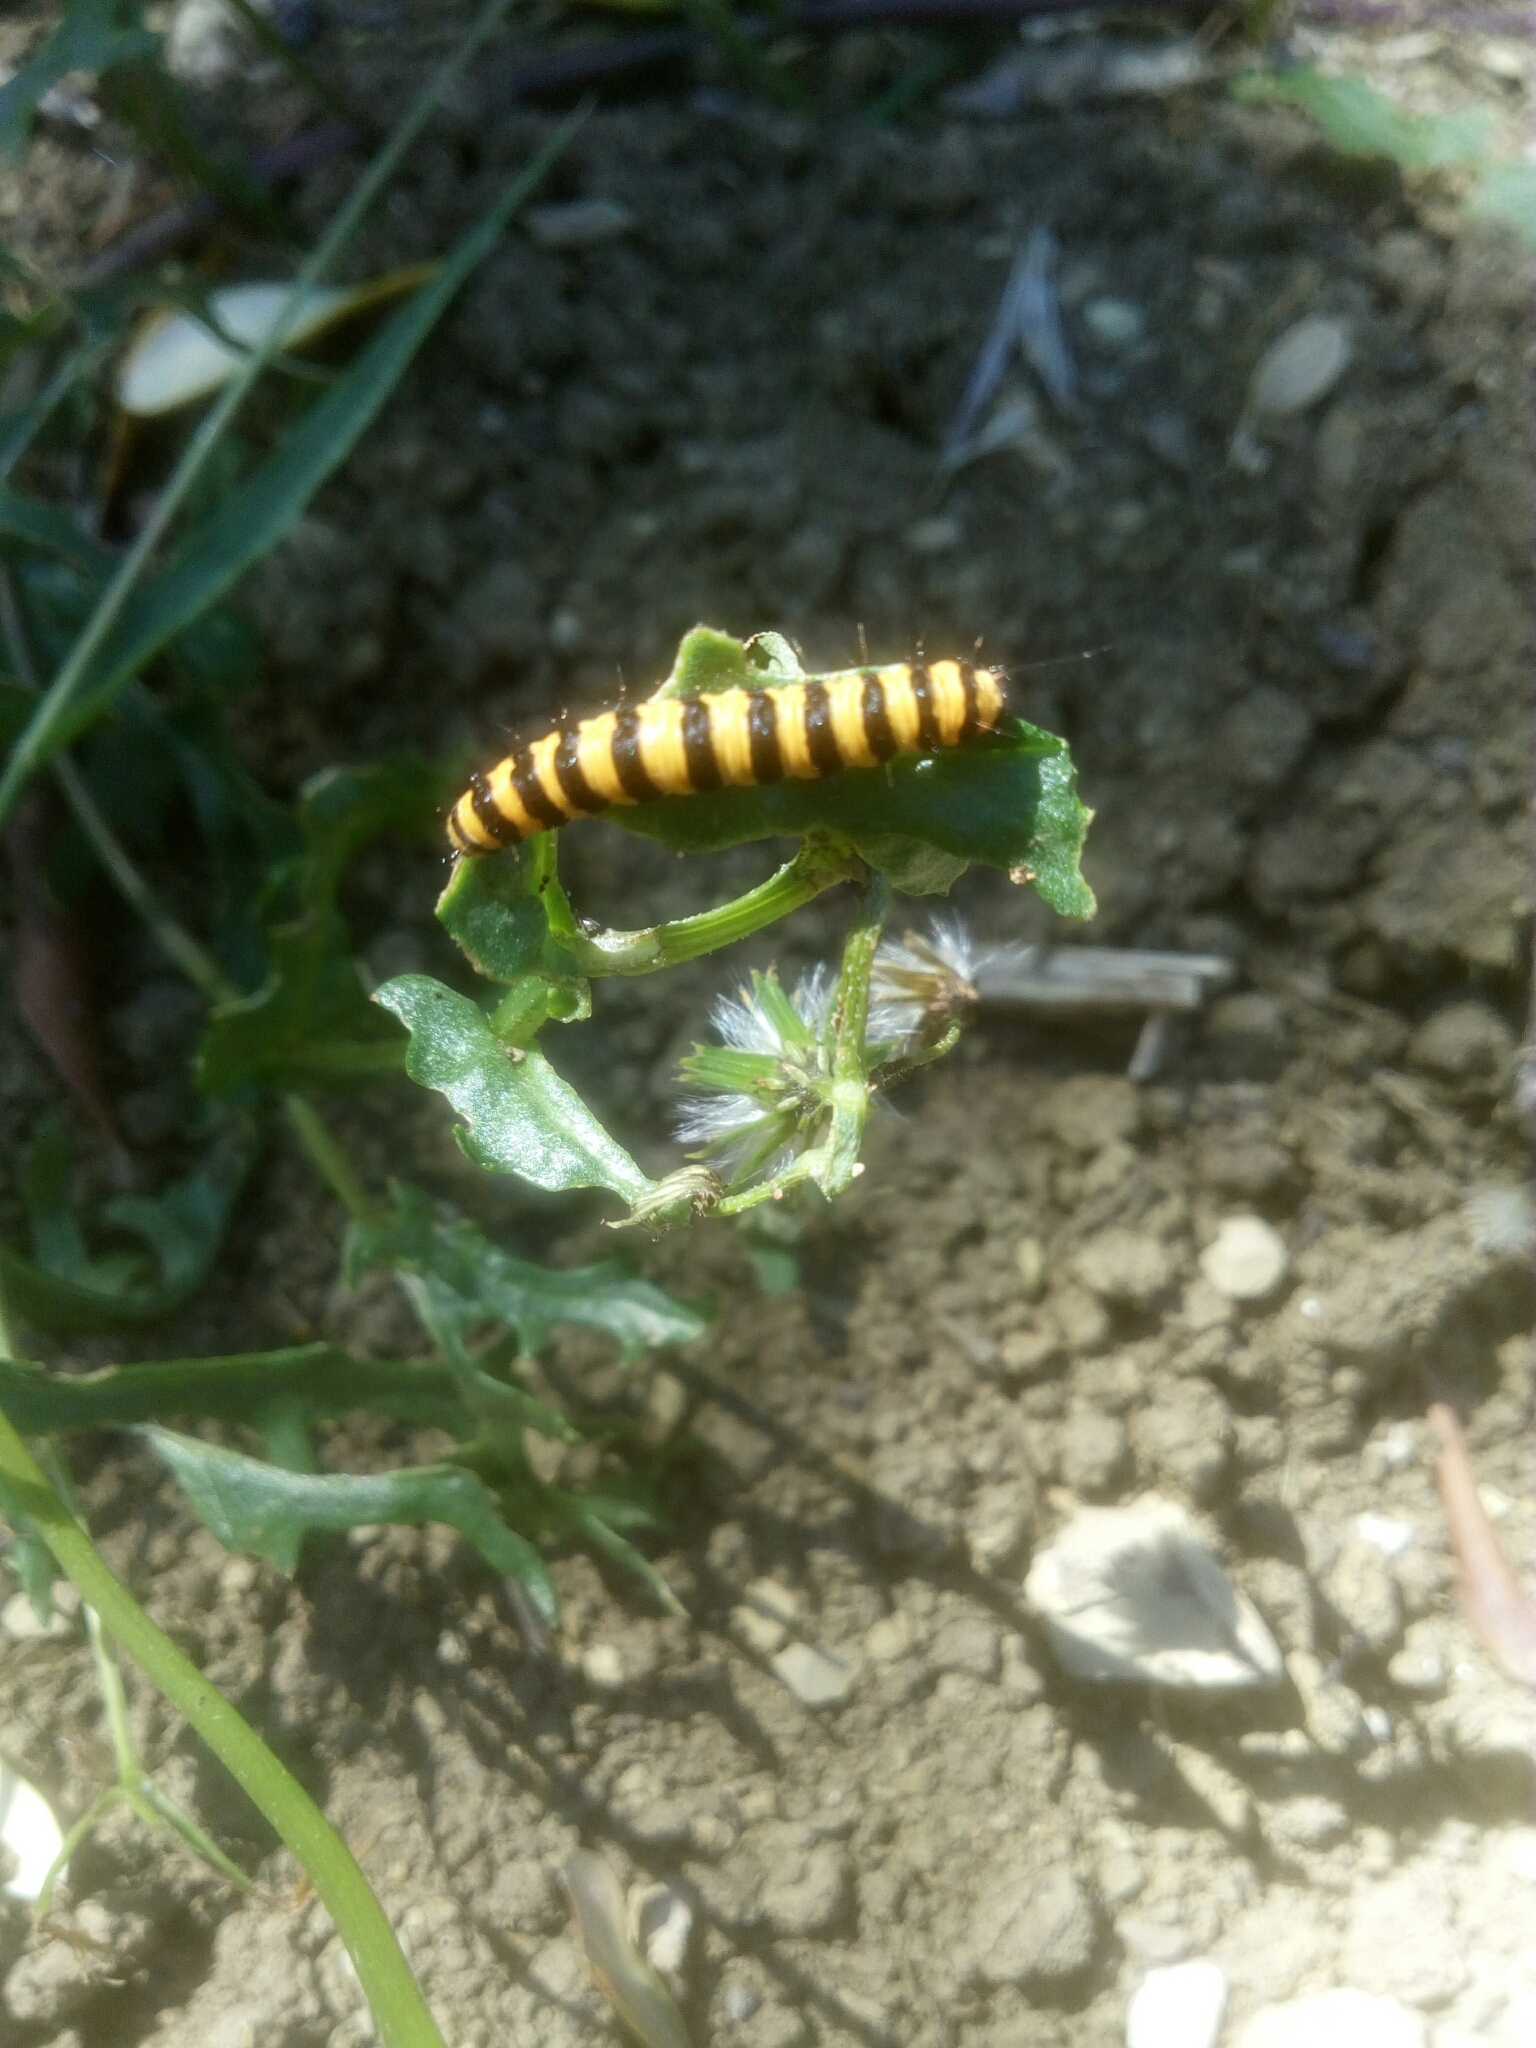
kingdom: Animalia
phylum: Arthropoda
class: Insecta
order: Lepidoptera
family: Erebidae
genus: Tyria
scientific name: Tyria jacobaeae
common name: Cinnabar
